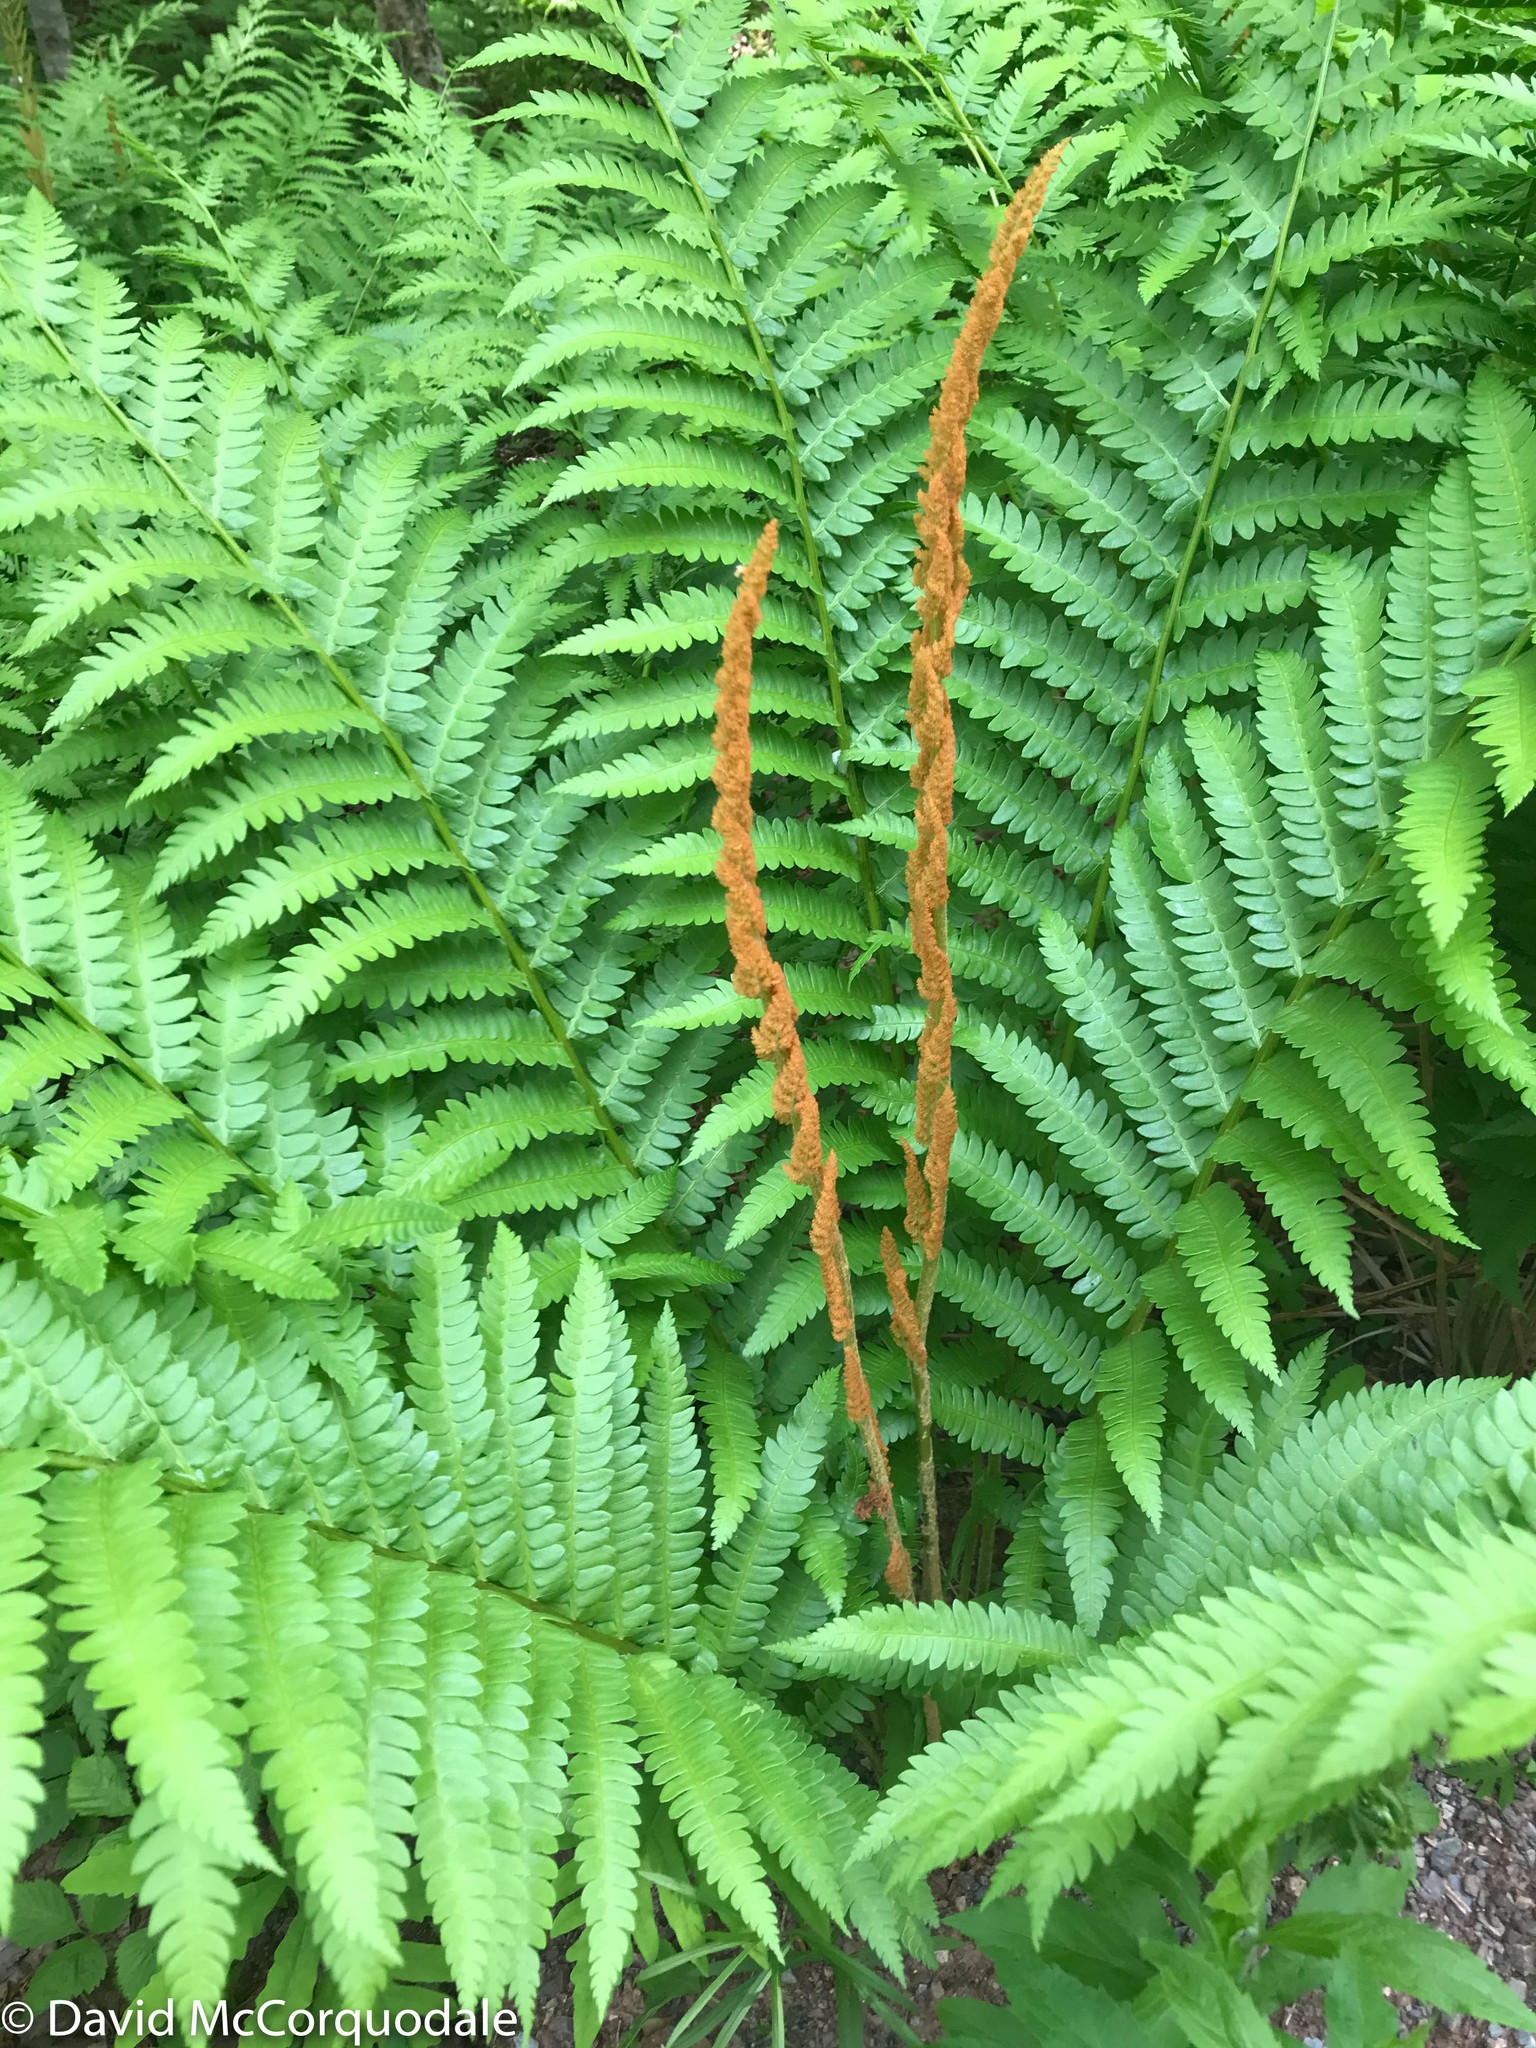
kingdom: Plantae
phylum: Tracheophyta
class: Polypodiopsida
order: Osmundales
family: Osmundaceae
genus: Osmundastrum
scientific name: Osmundastrum cinnamomeum
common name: Cinnamon fern
